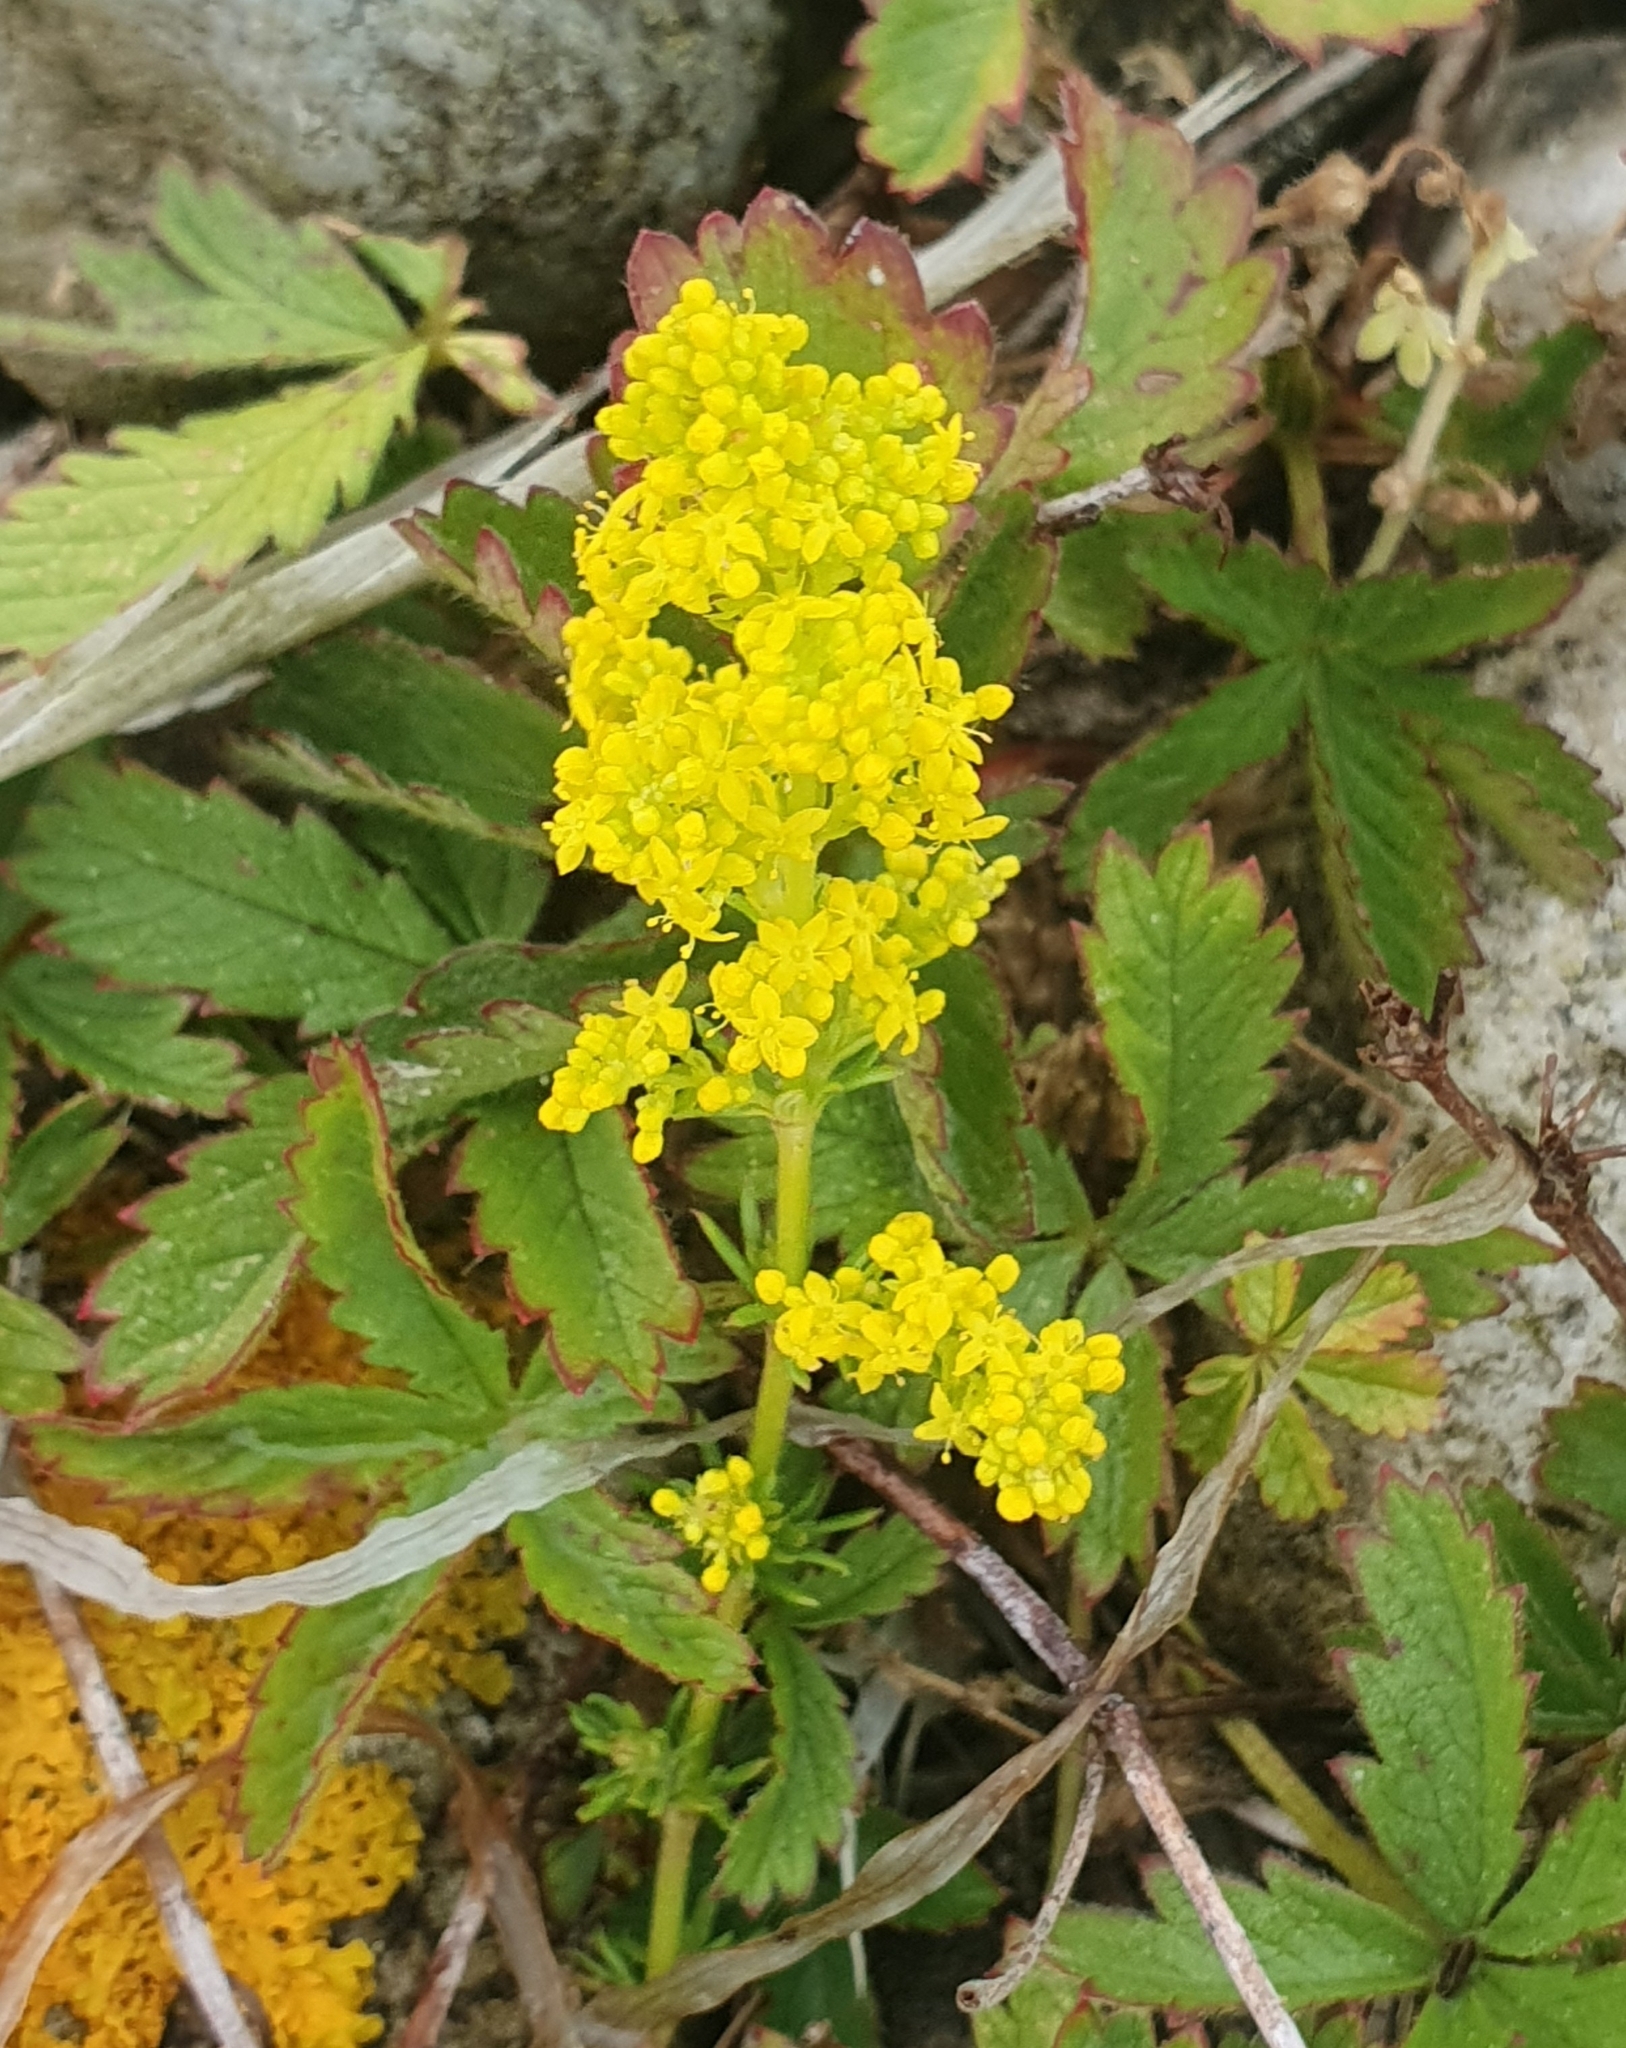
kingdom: Plantae
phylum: Tracheophyta
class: Magnoliopsida
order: Gentianales
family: Rubiaceae
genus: Galium
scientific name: Galium verum
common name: Lady's bedstraw
